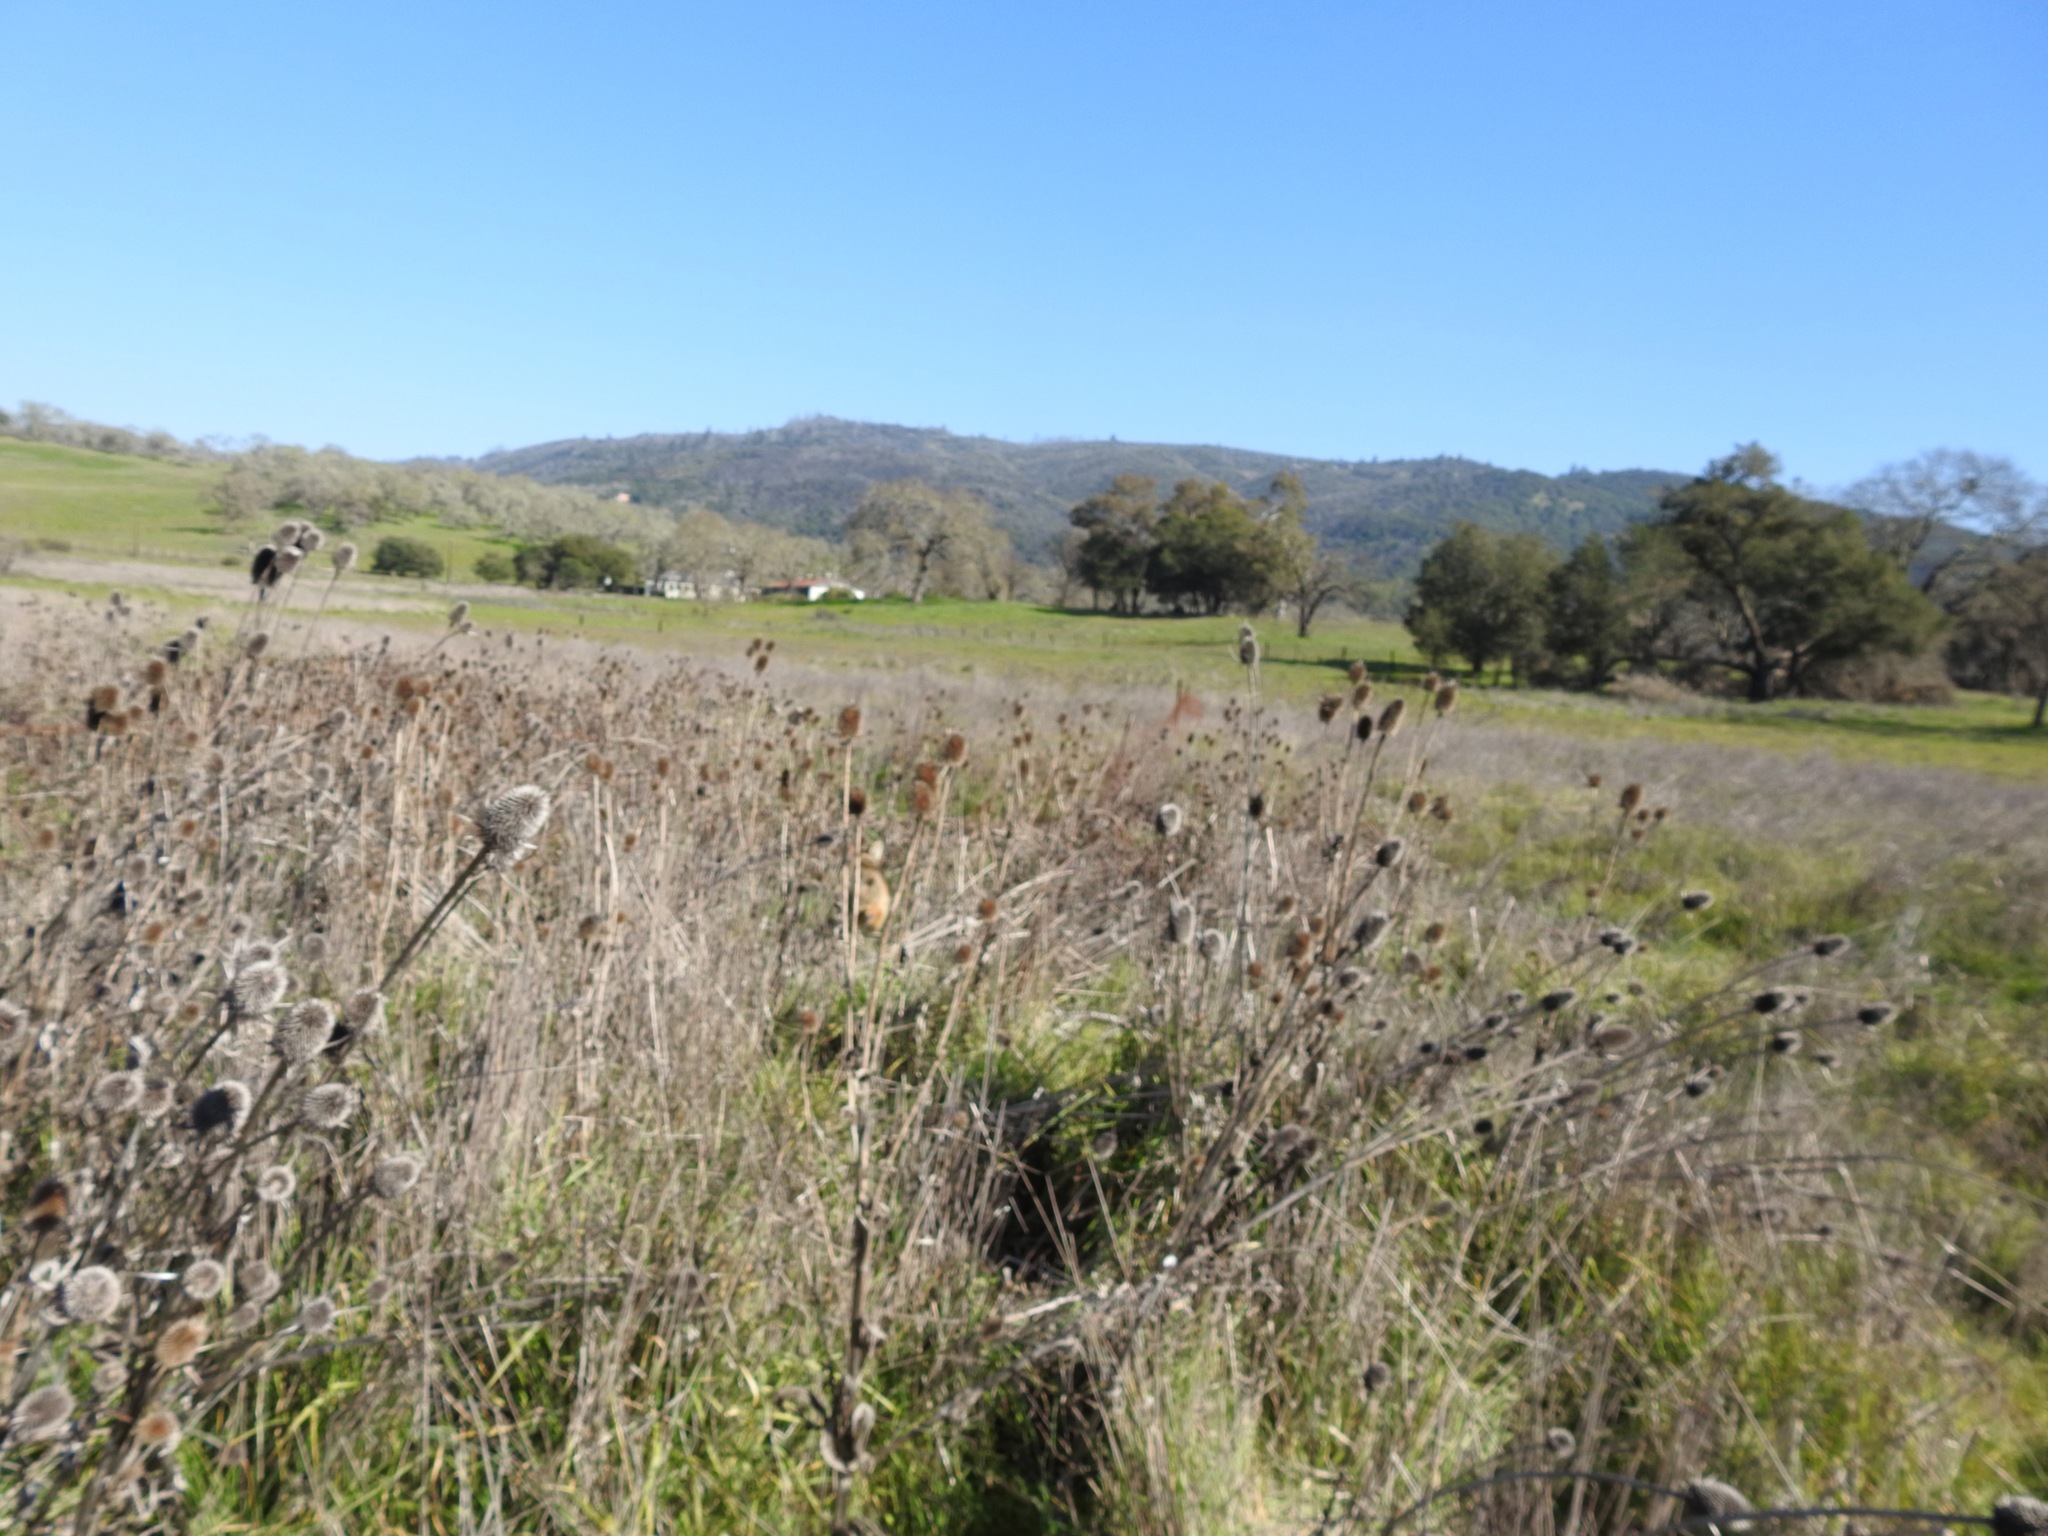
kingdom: Plantae
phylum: Tracheophyta
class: Magnoliopsida
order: Dipsacales
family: Caprifoliaceae
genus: Dipsacus
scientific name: Dipsacus sativus
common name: Fuller's teasel
